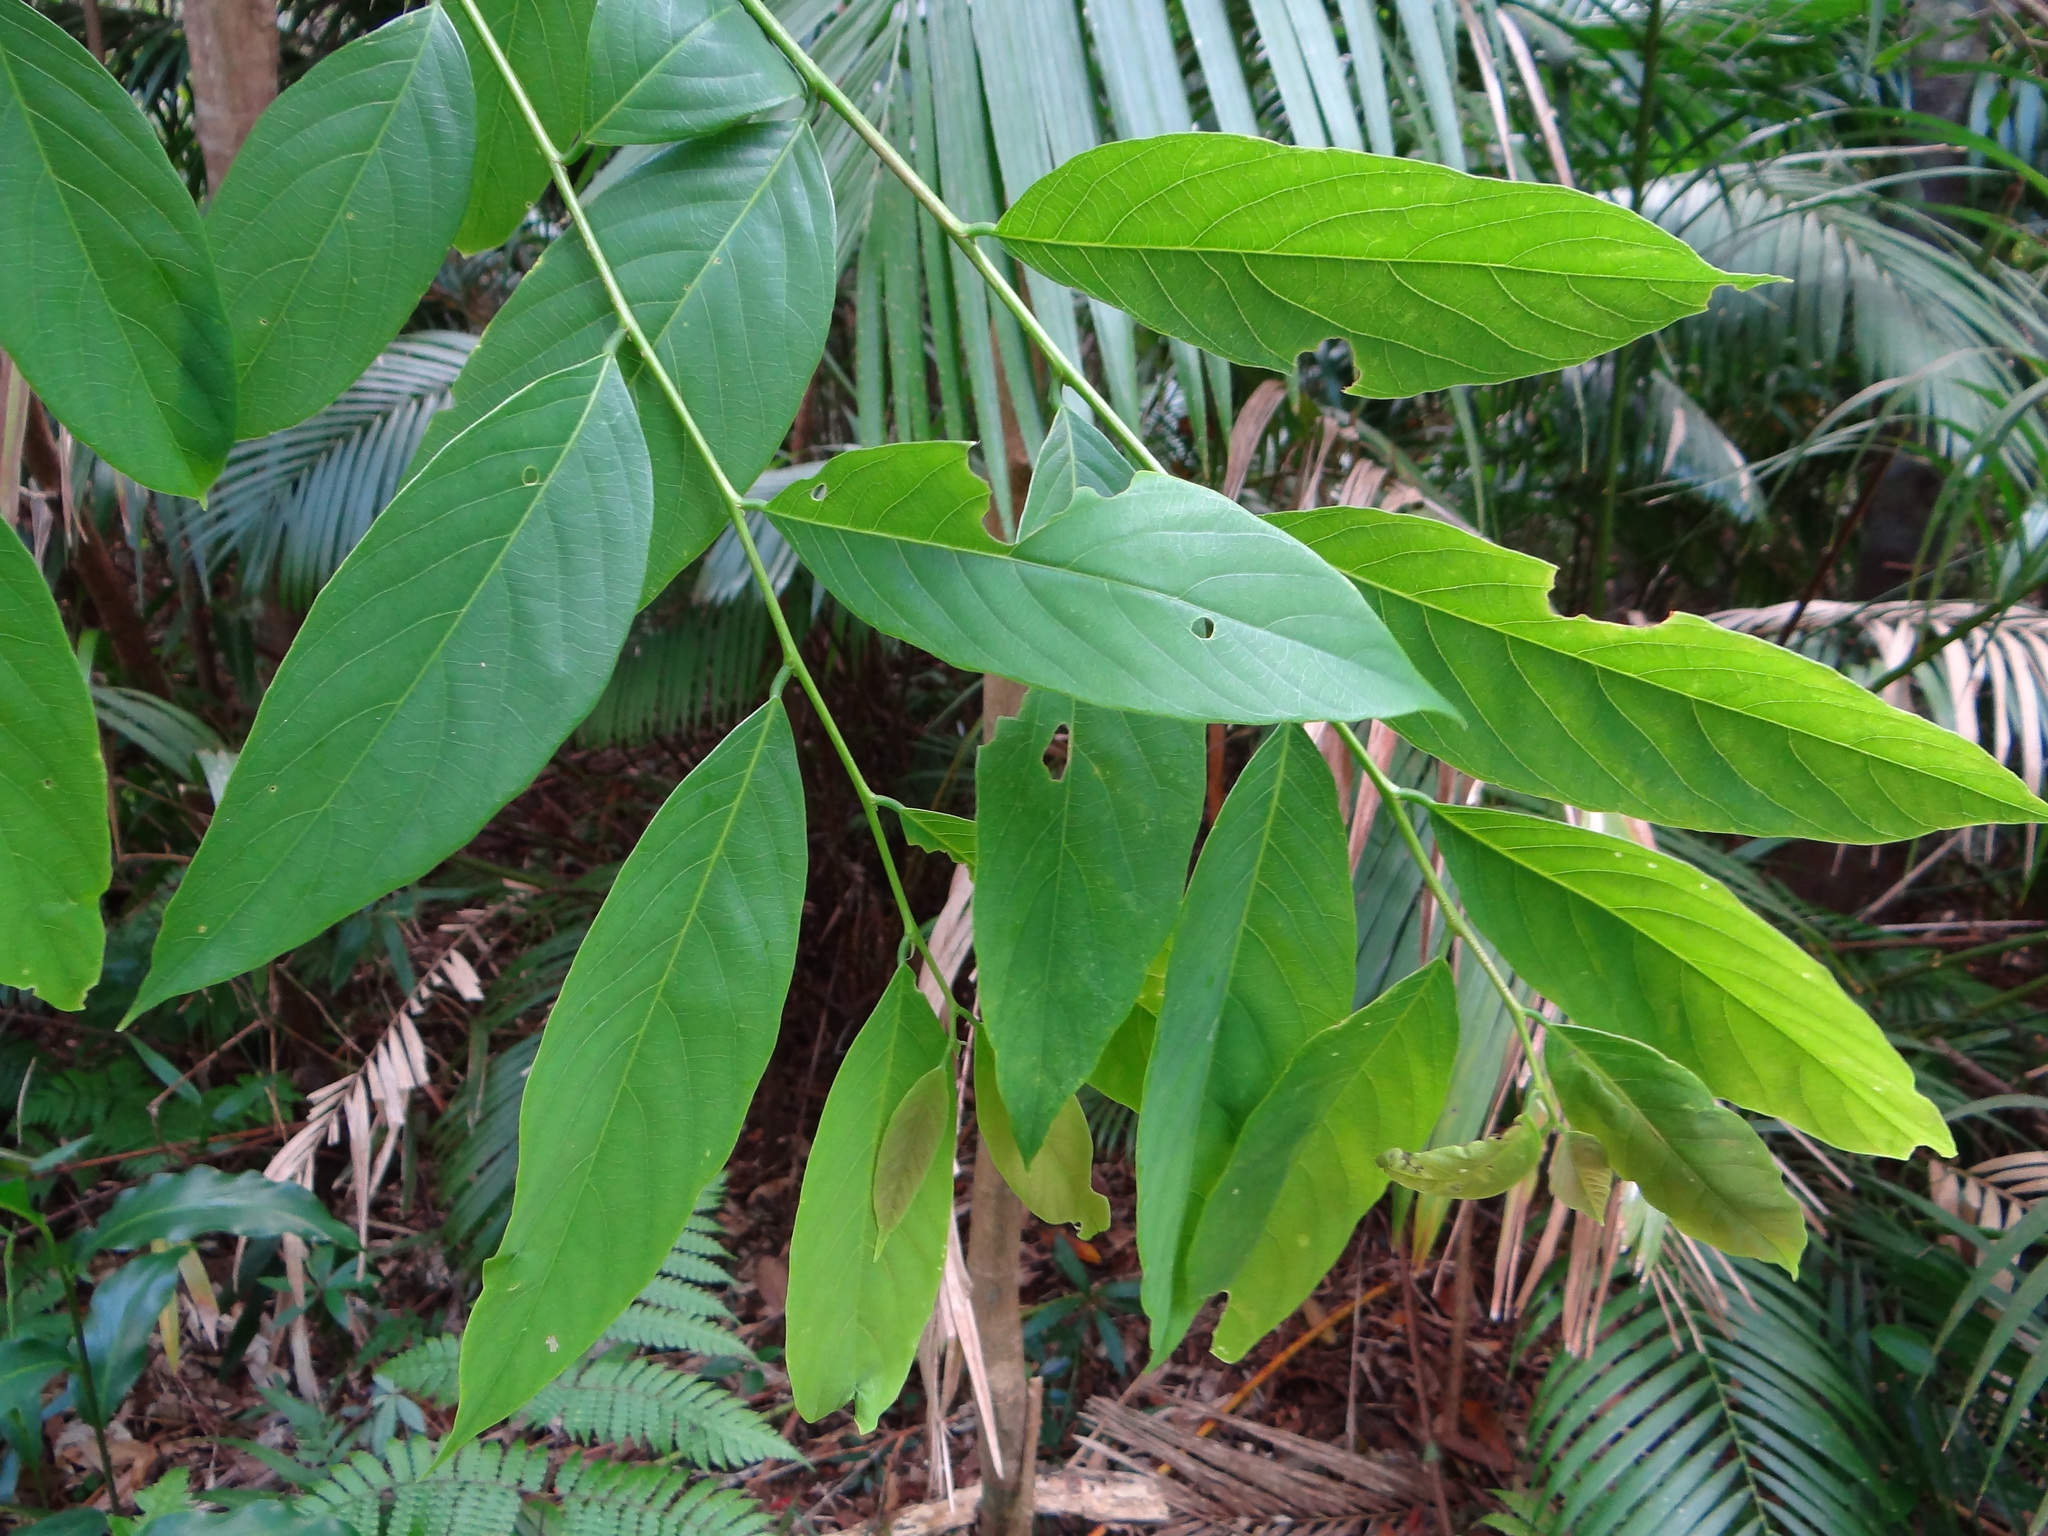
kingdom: Plantae
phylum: Tracheophyta
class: Magnoliopsida
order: Malpighiales
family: Phyllanthaceae
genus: Bridelia
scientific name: Bridelia balansae
